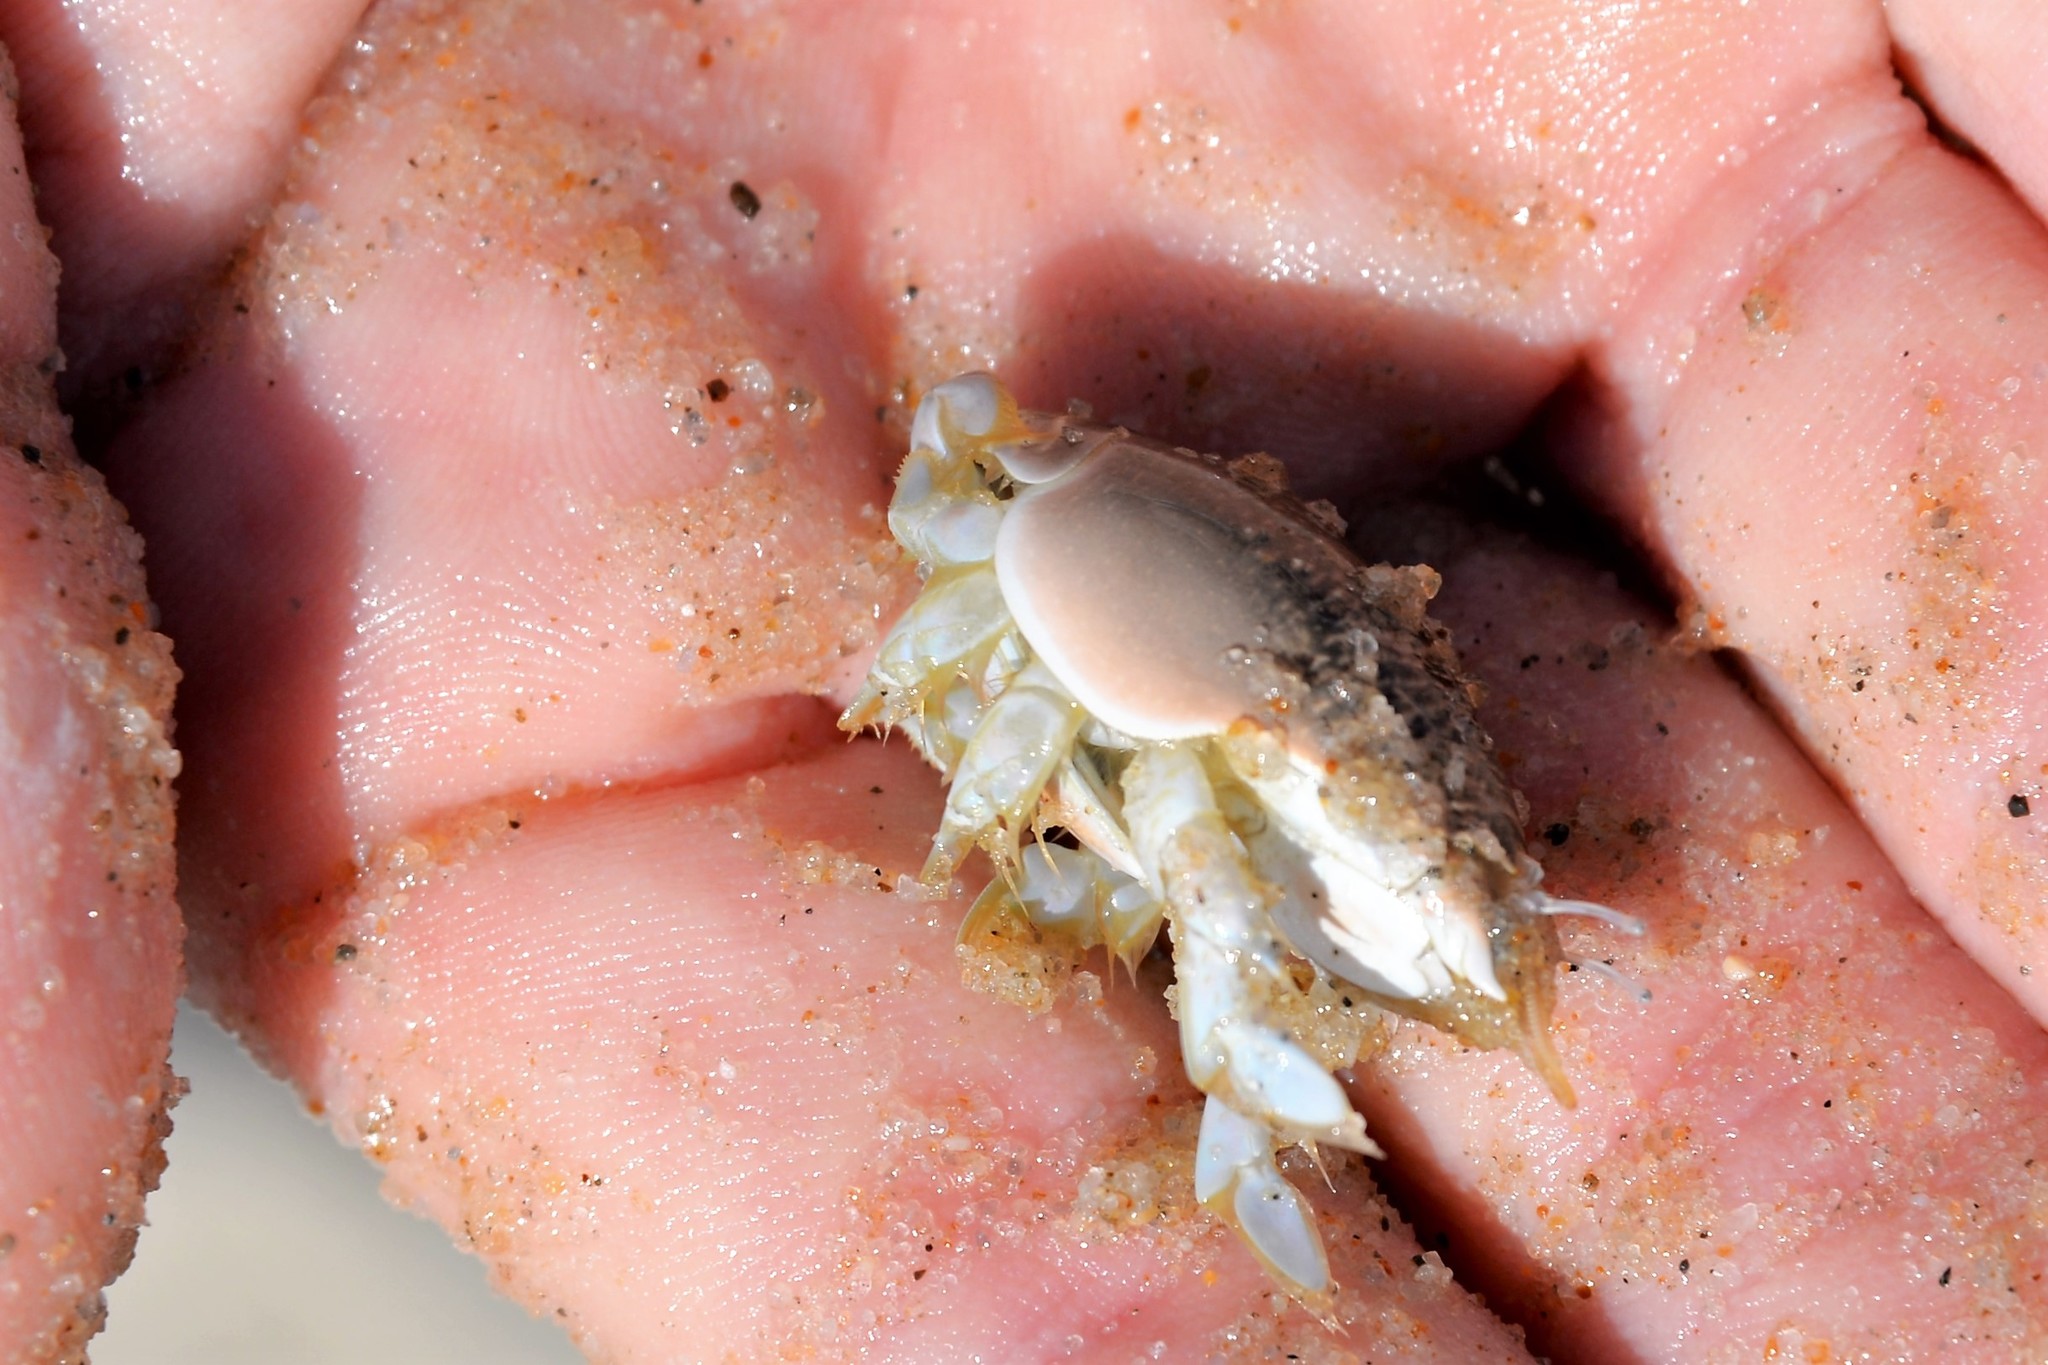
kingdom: Animalia
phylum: Arthropoda
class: Malacostraca
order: Decapoda
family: Hippidae
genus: Emerita
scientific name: Emerita talpoida
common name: Atlantic sand crab
